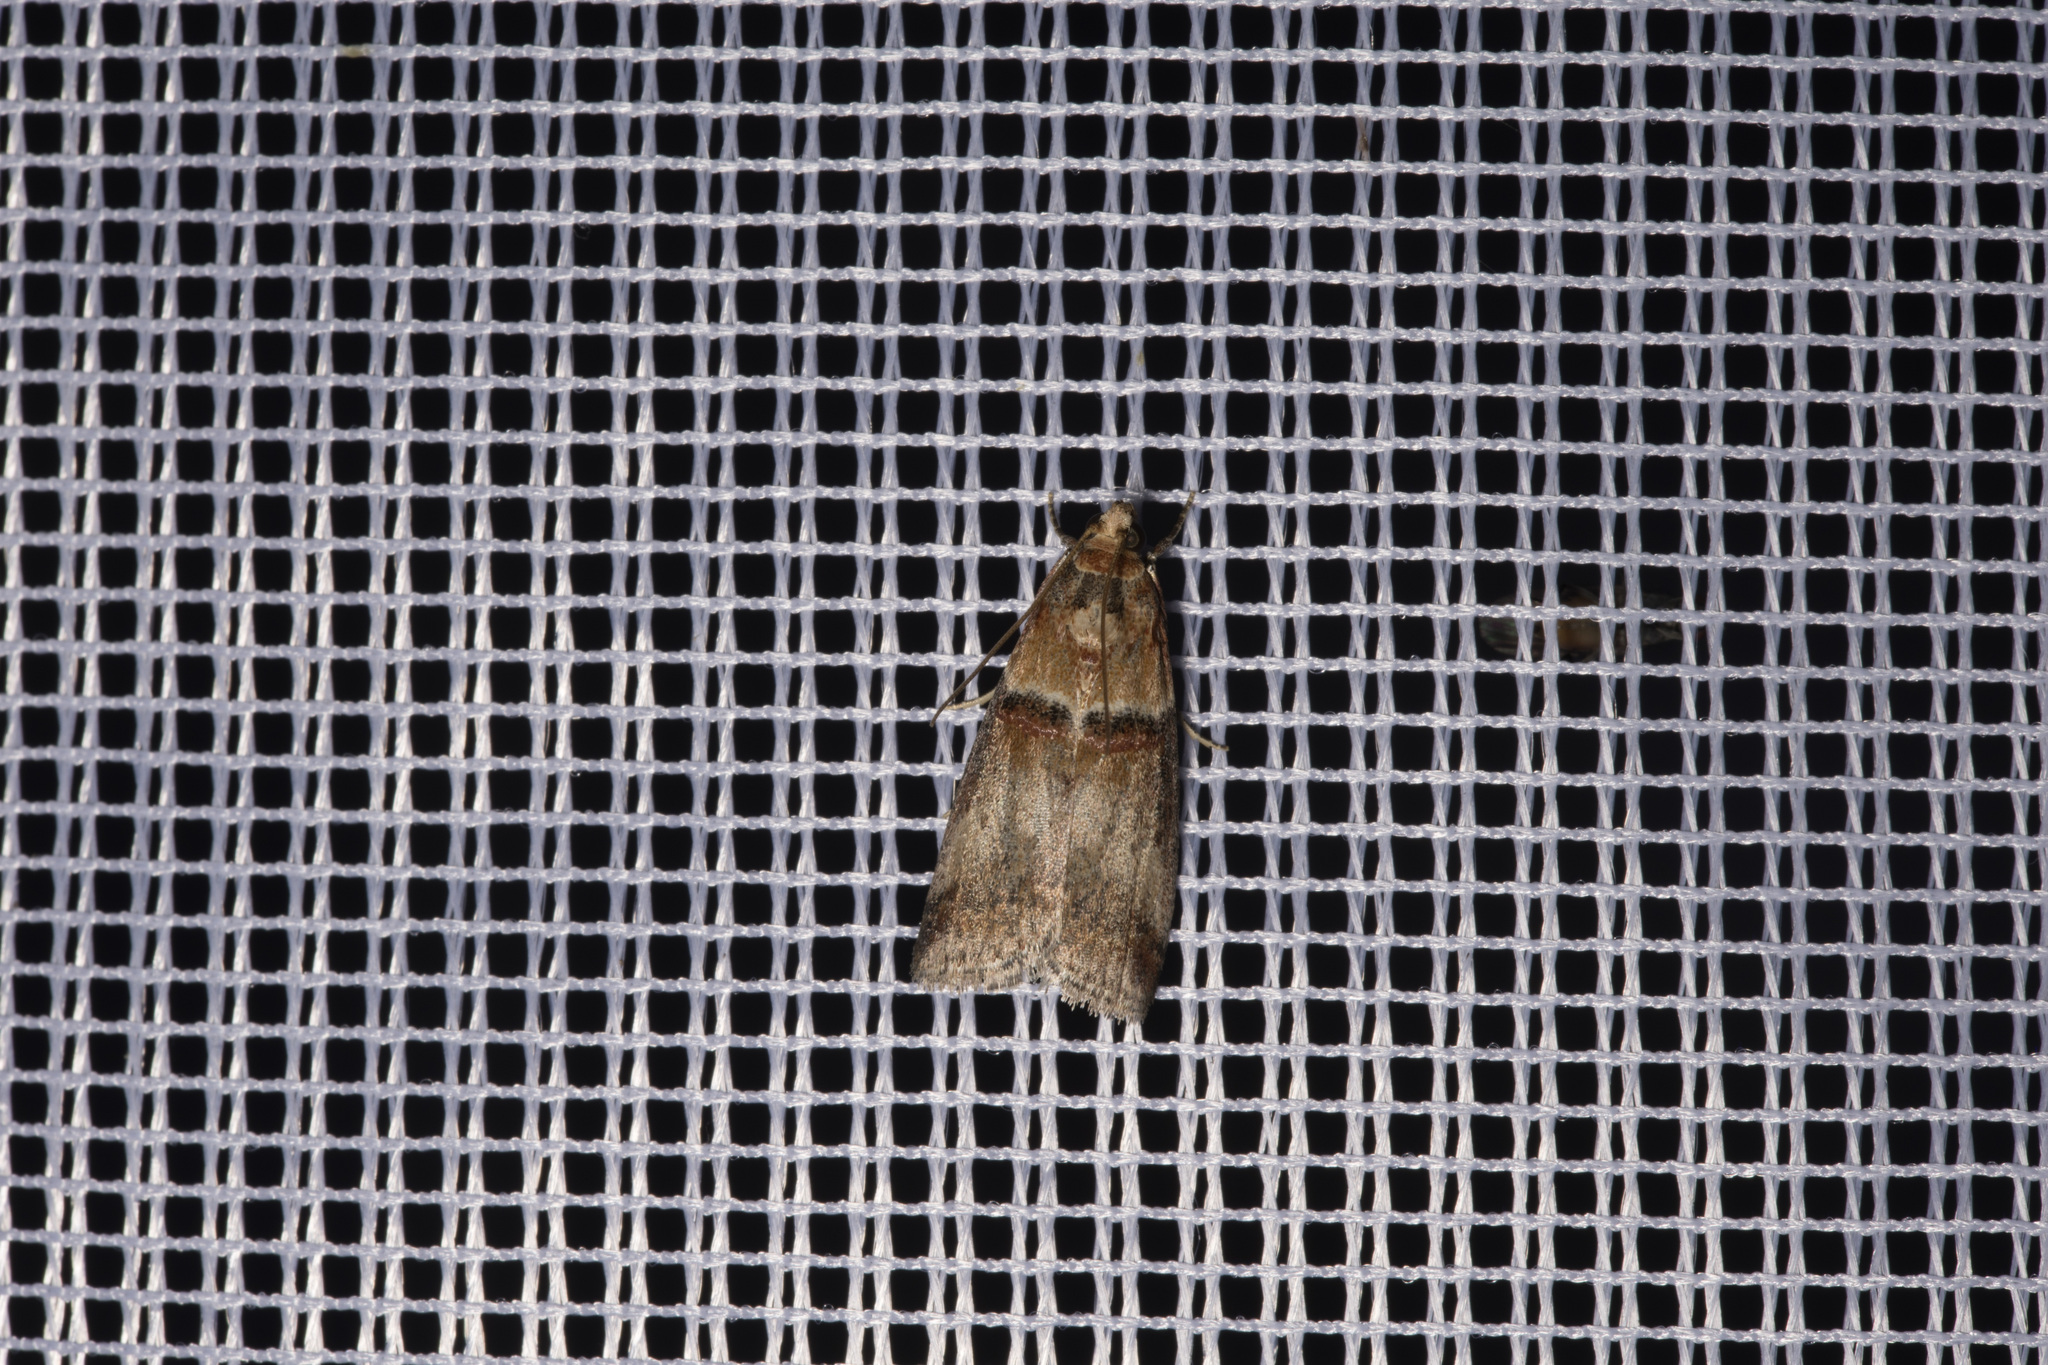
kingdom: Animalia
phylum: Arthropoda
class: Insecta
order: Lepidoptera
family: Pyralidae
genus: Acrobasis
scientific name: Acrobasis tumidana
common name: Scarce oak knot-horn
